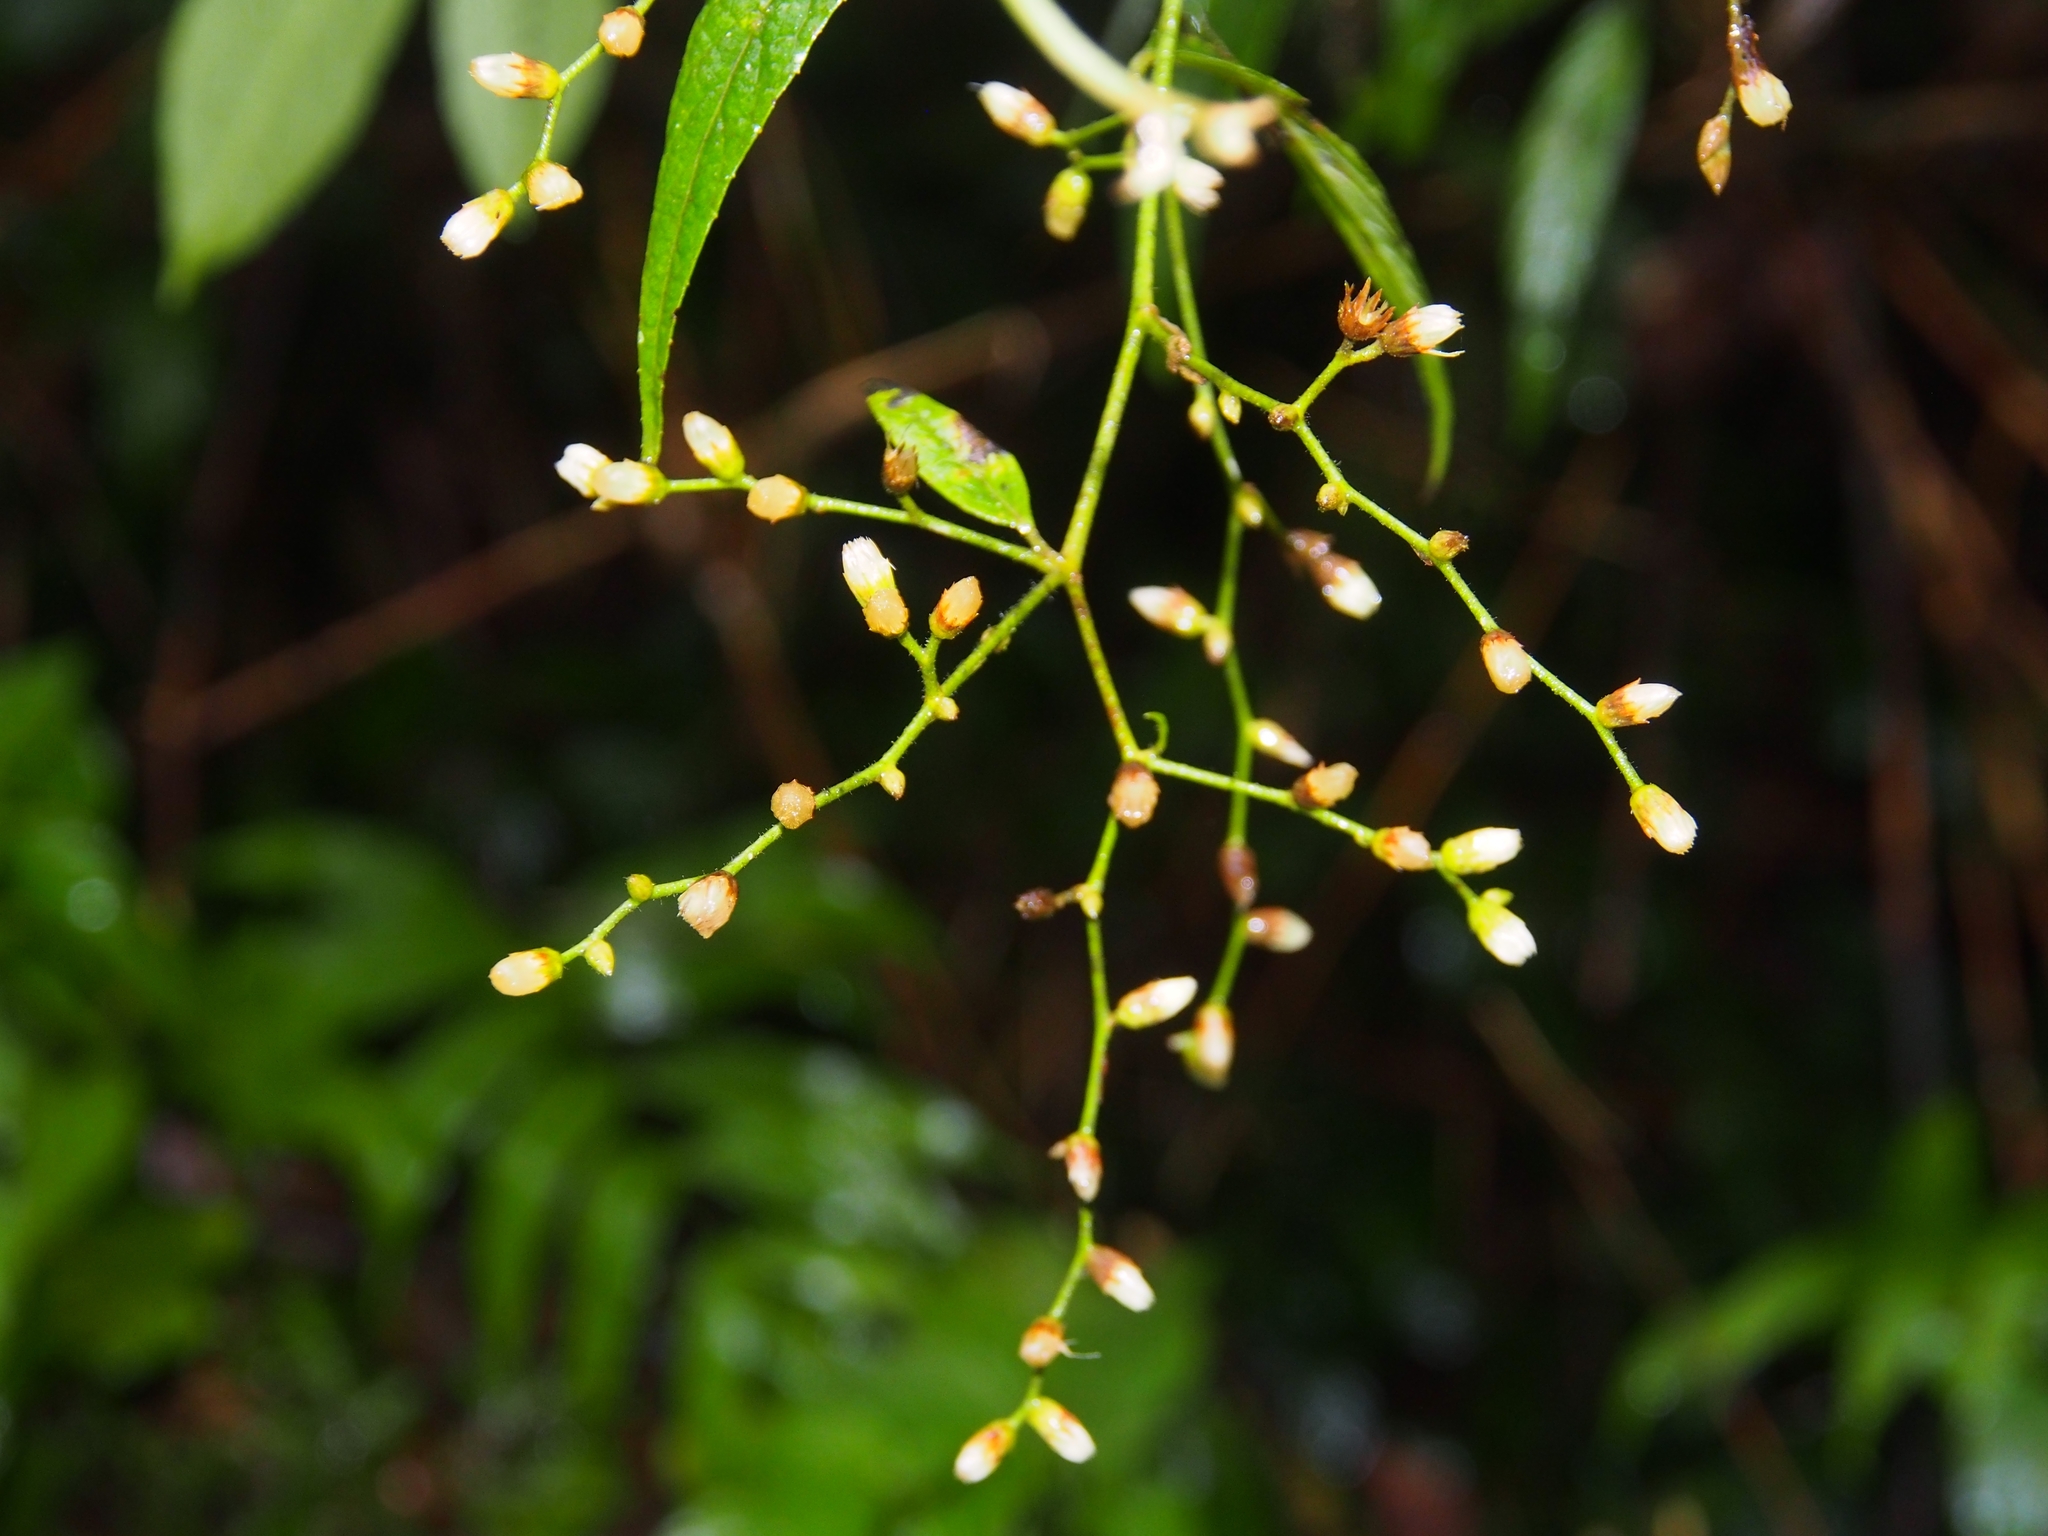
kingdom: Plantae
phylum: Tracheophyta
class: Magnoliopsida
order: Asterales
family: Asteraceae
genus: Lepidaploa
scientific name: Lepidaploa arborescens
